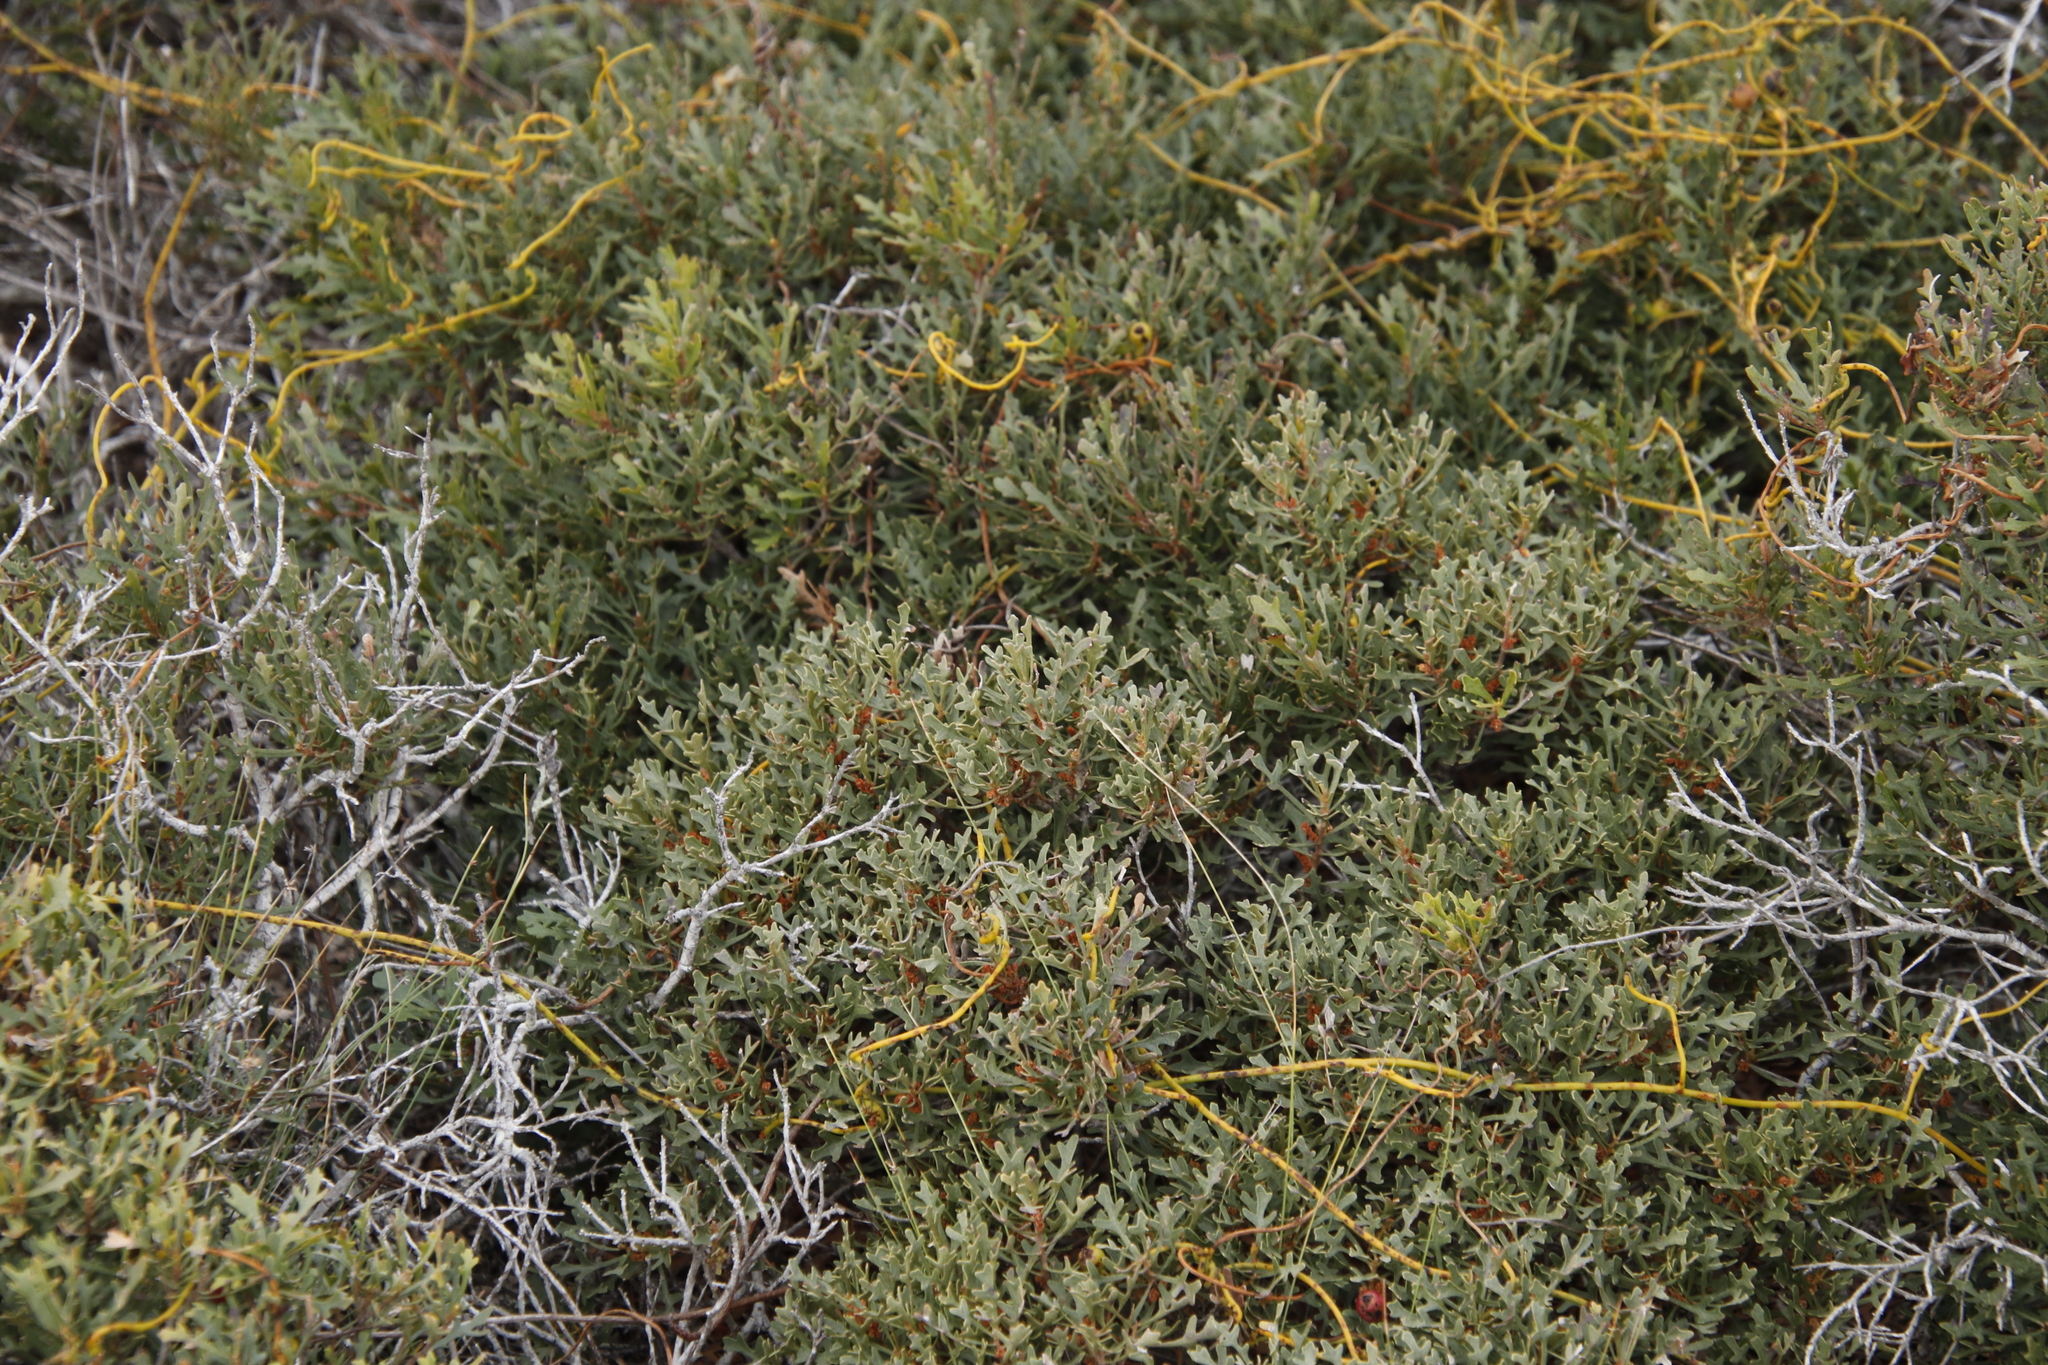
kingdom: Plantae
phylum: Tracheophyta
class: Magnoliopsida
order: Fagales
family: Myricaceae
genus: Morella
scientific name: Morella quercifolia
